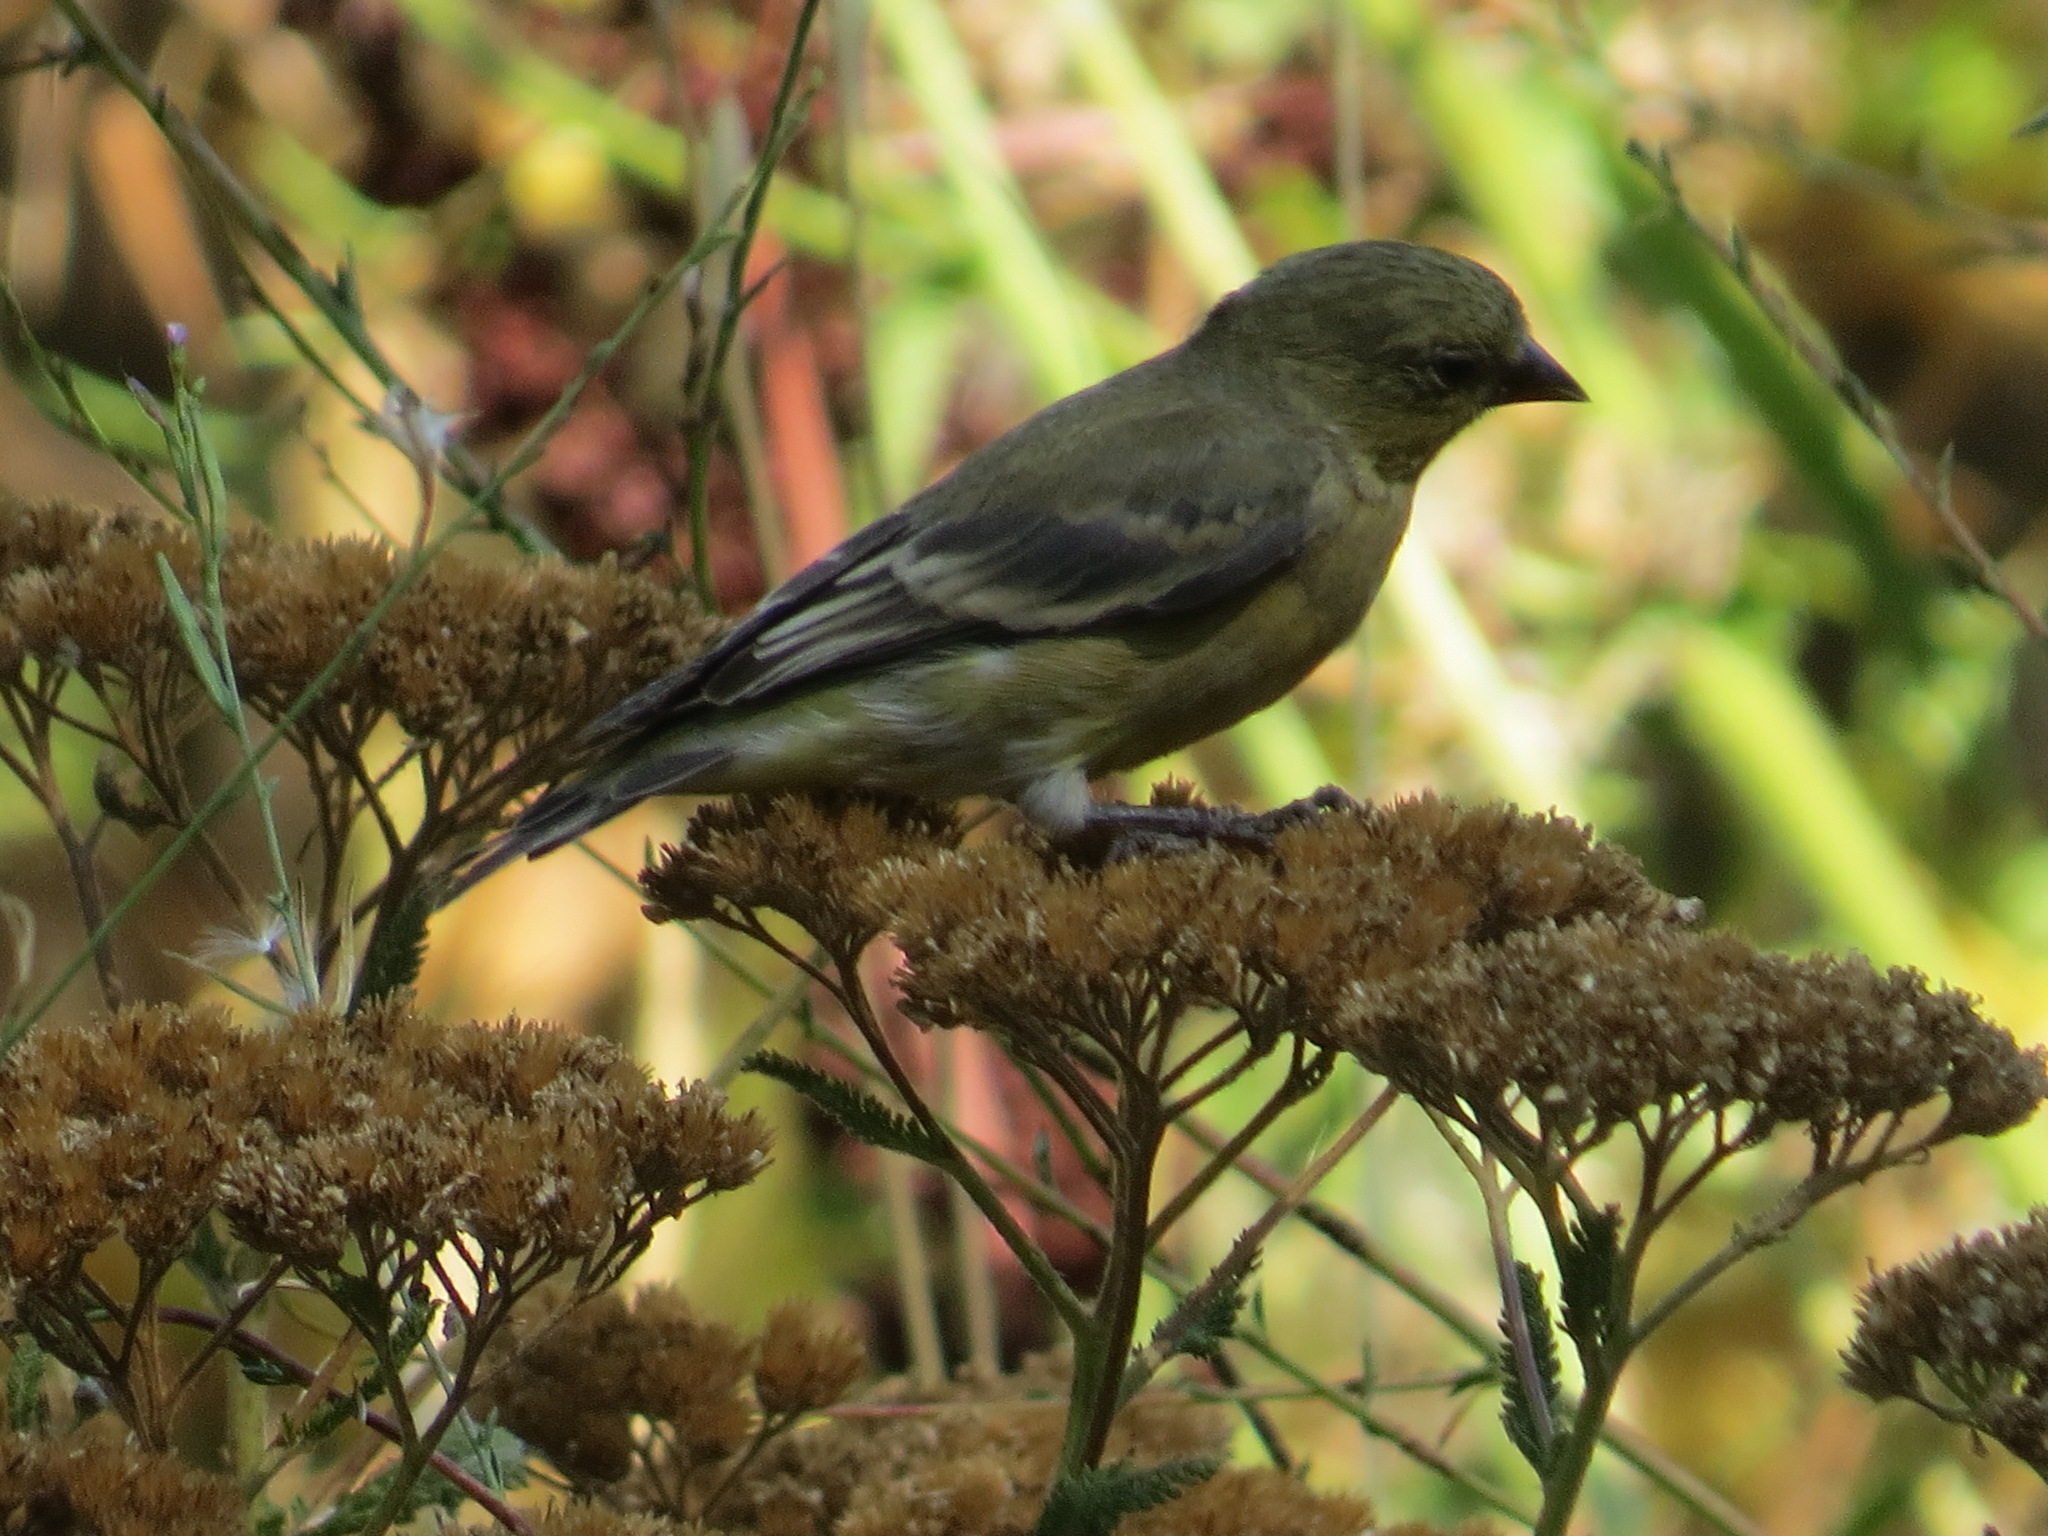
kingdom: Animalia
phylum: Chordata
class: Aves
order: Passeriformes
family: Fringillidae
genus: Spinus
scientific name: Spinus psaltria
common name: Lesser goldfinch
